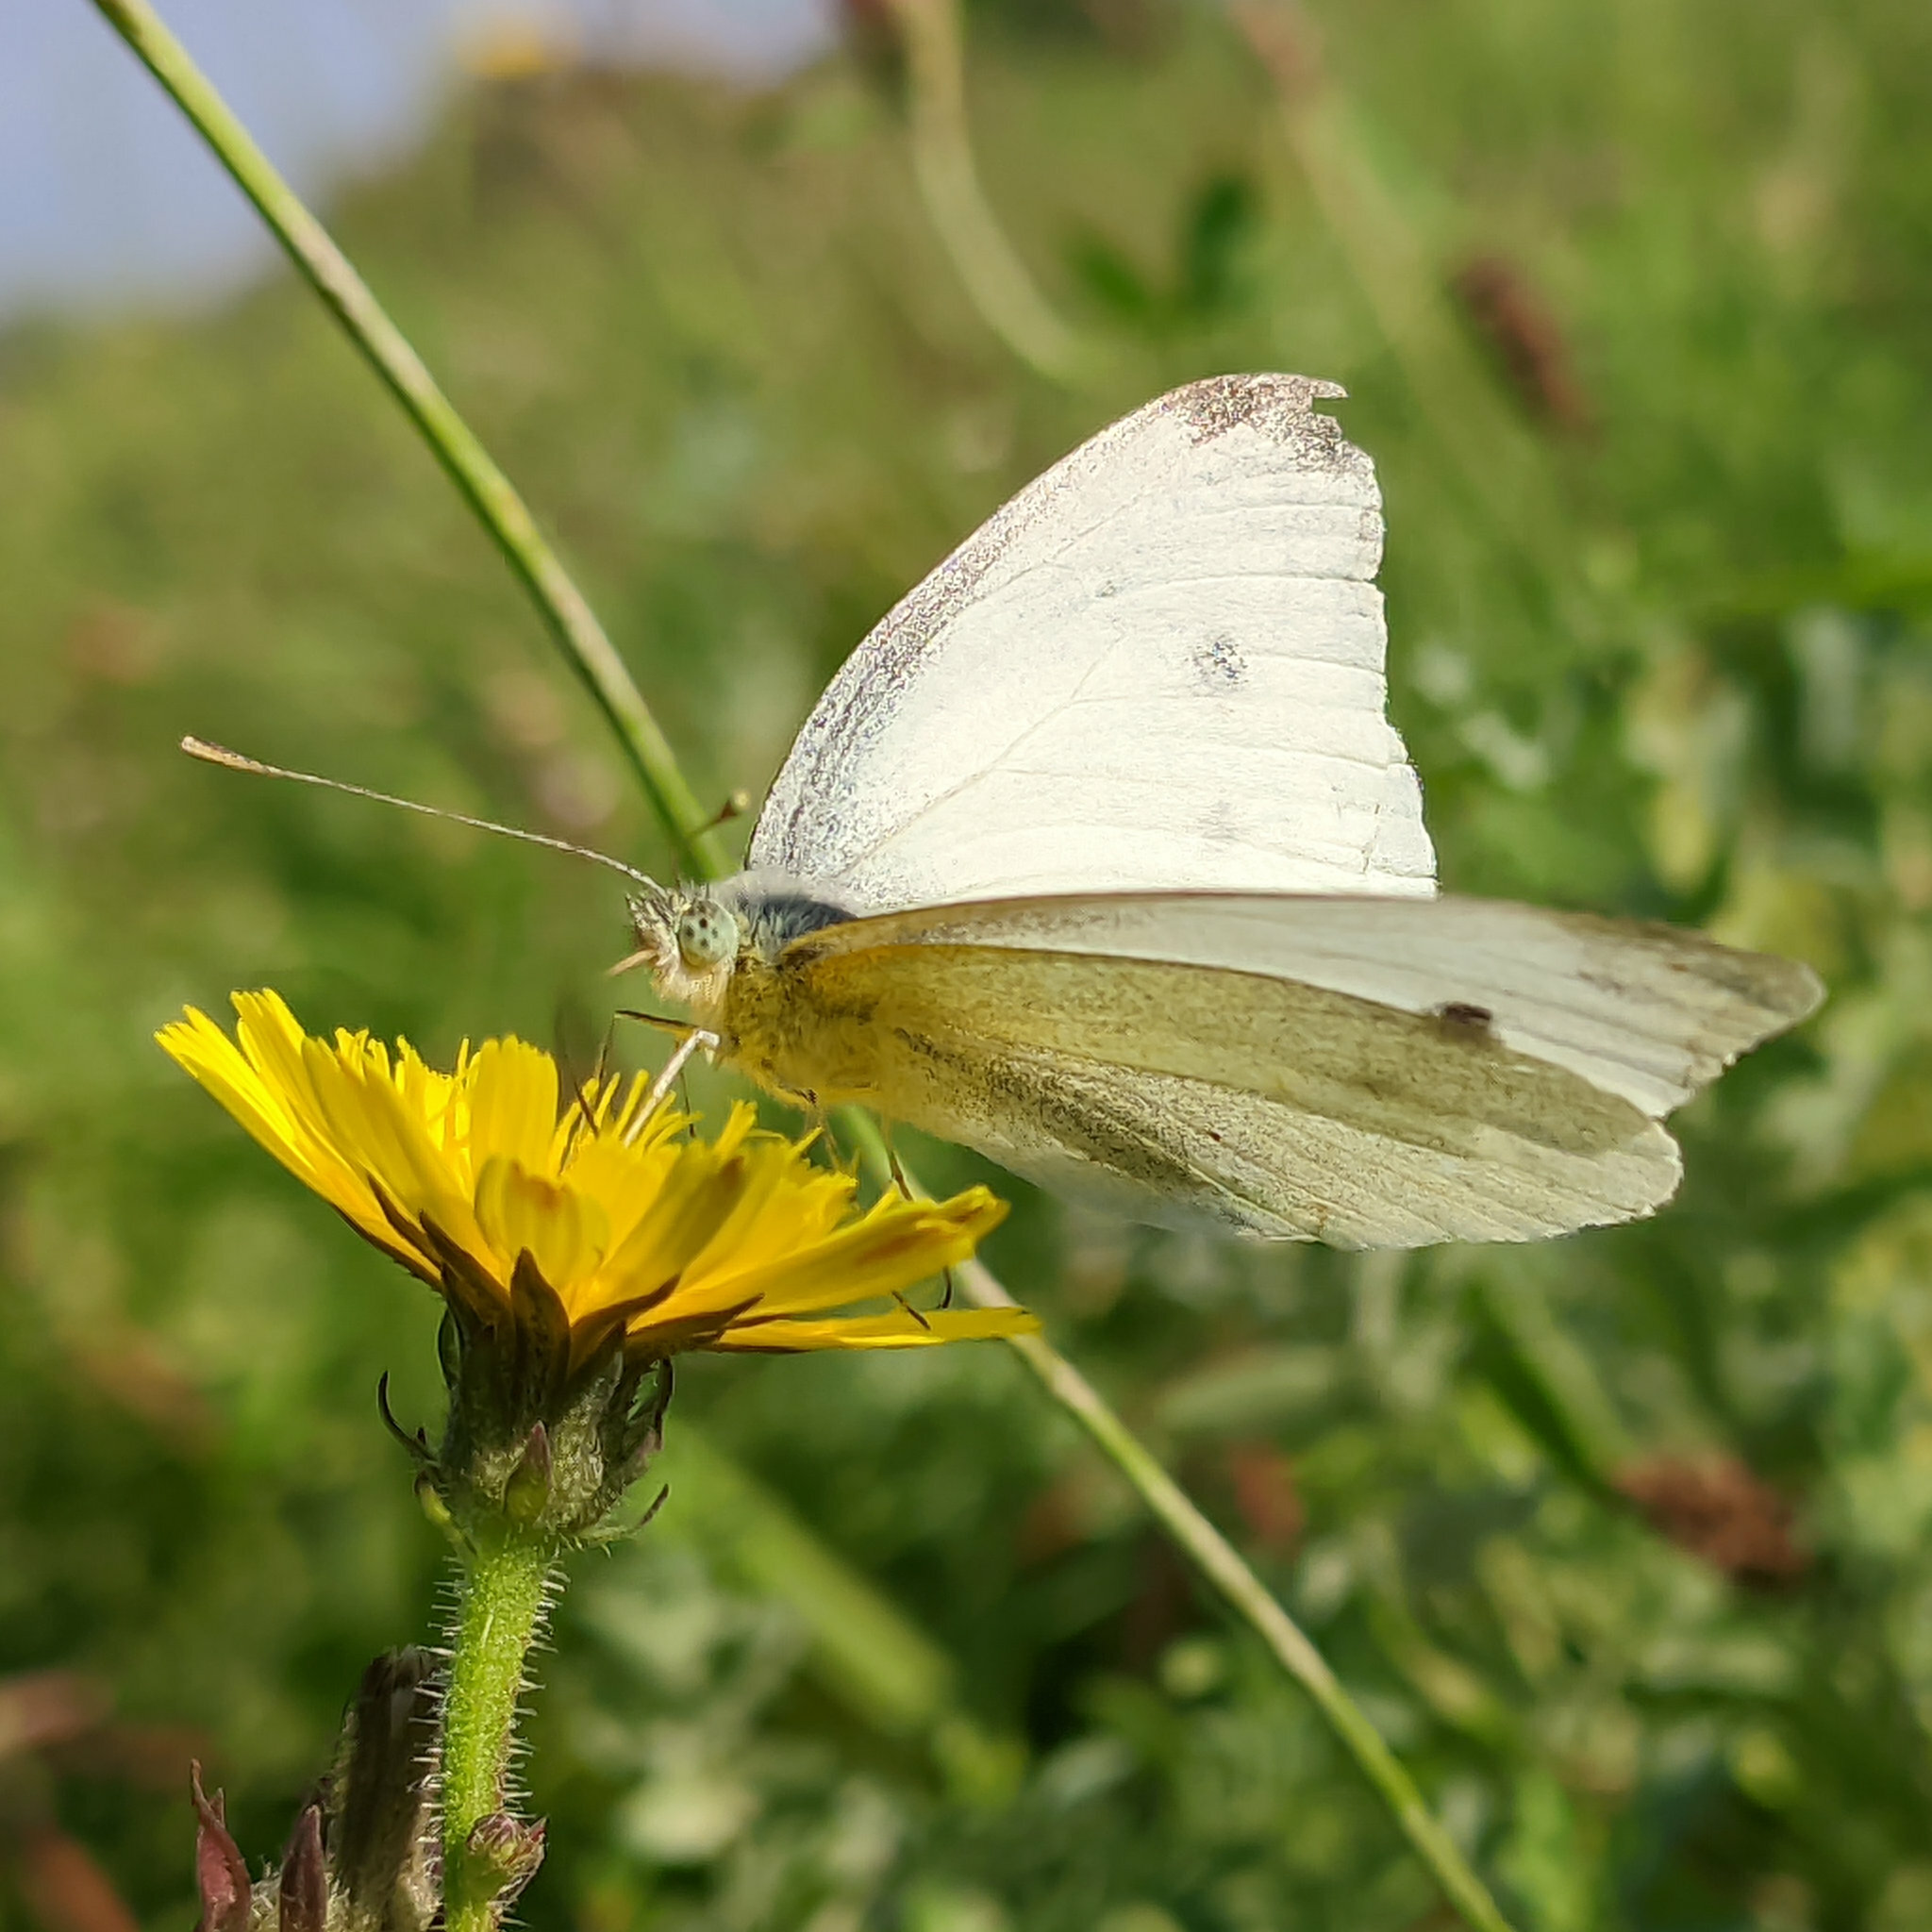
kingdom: Animalia
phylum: Arthropoda
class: Insecta
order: Lepidoptera
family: Pieridae
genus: Pieris
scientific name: Pieris rapae
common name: Small white
